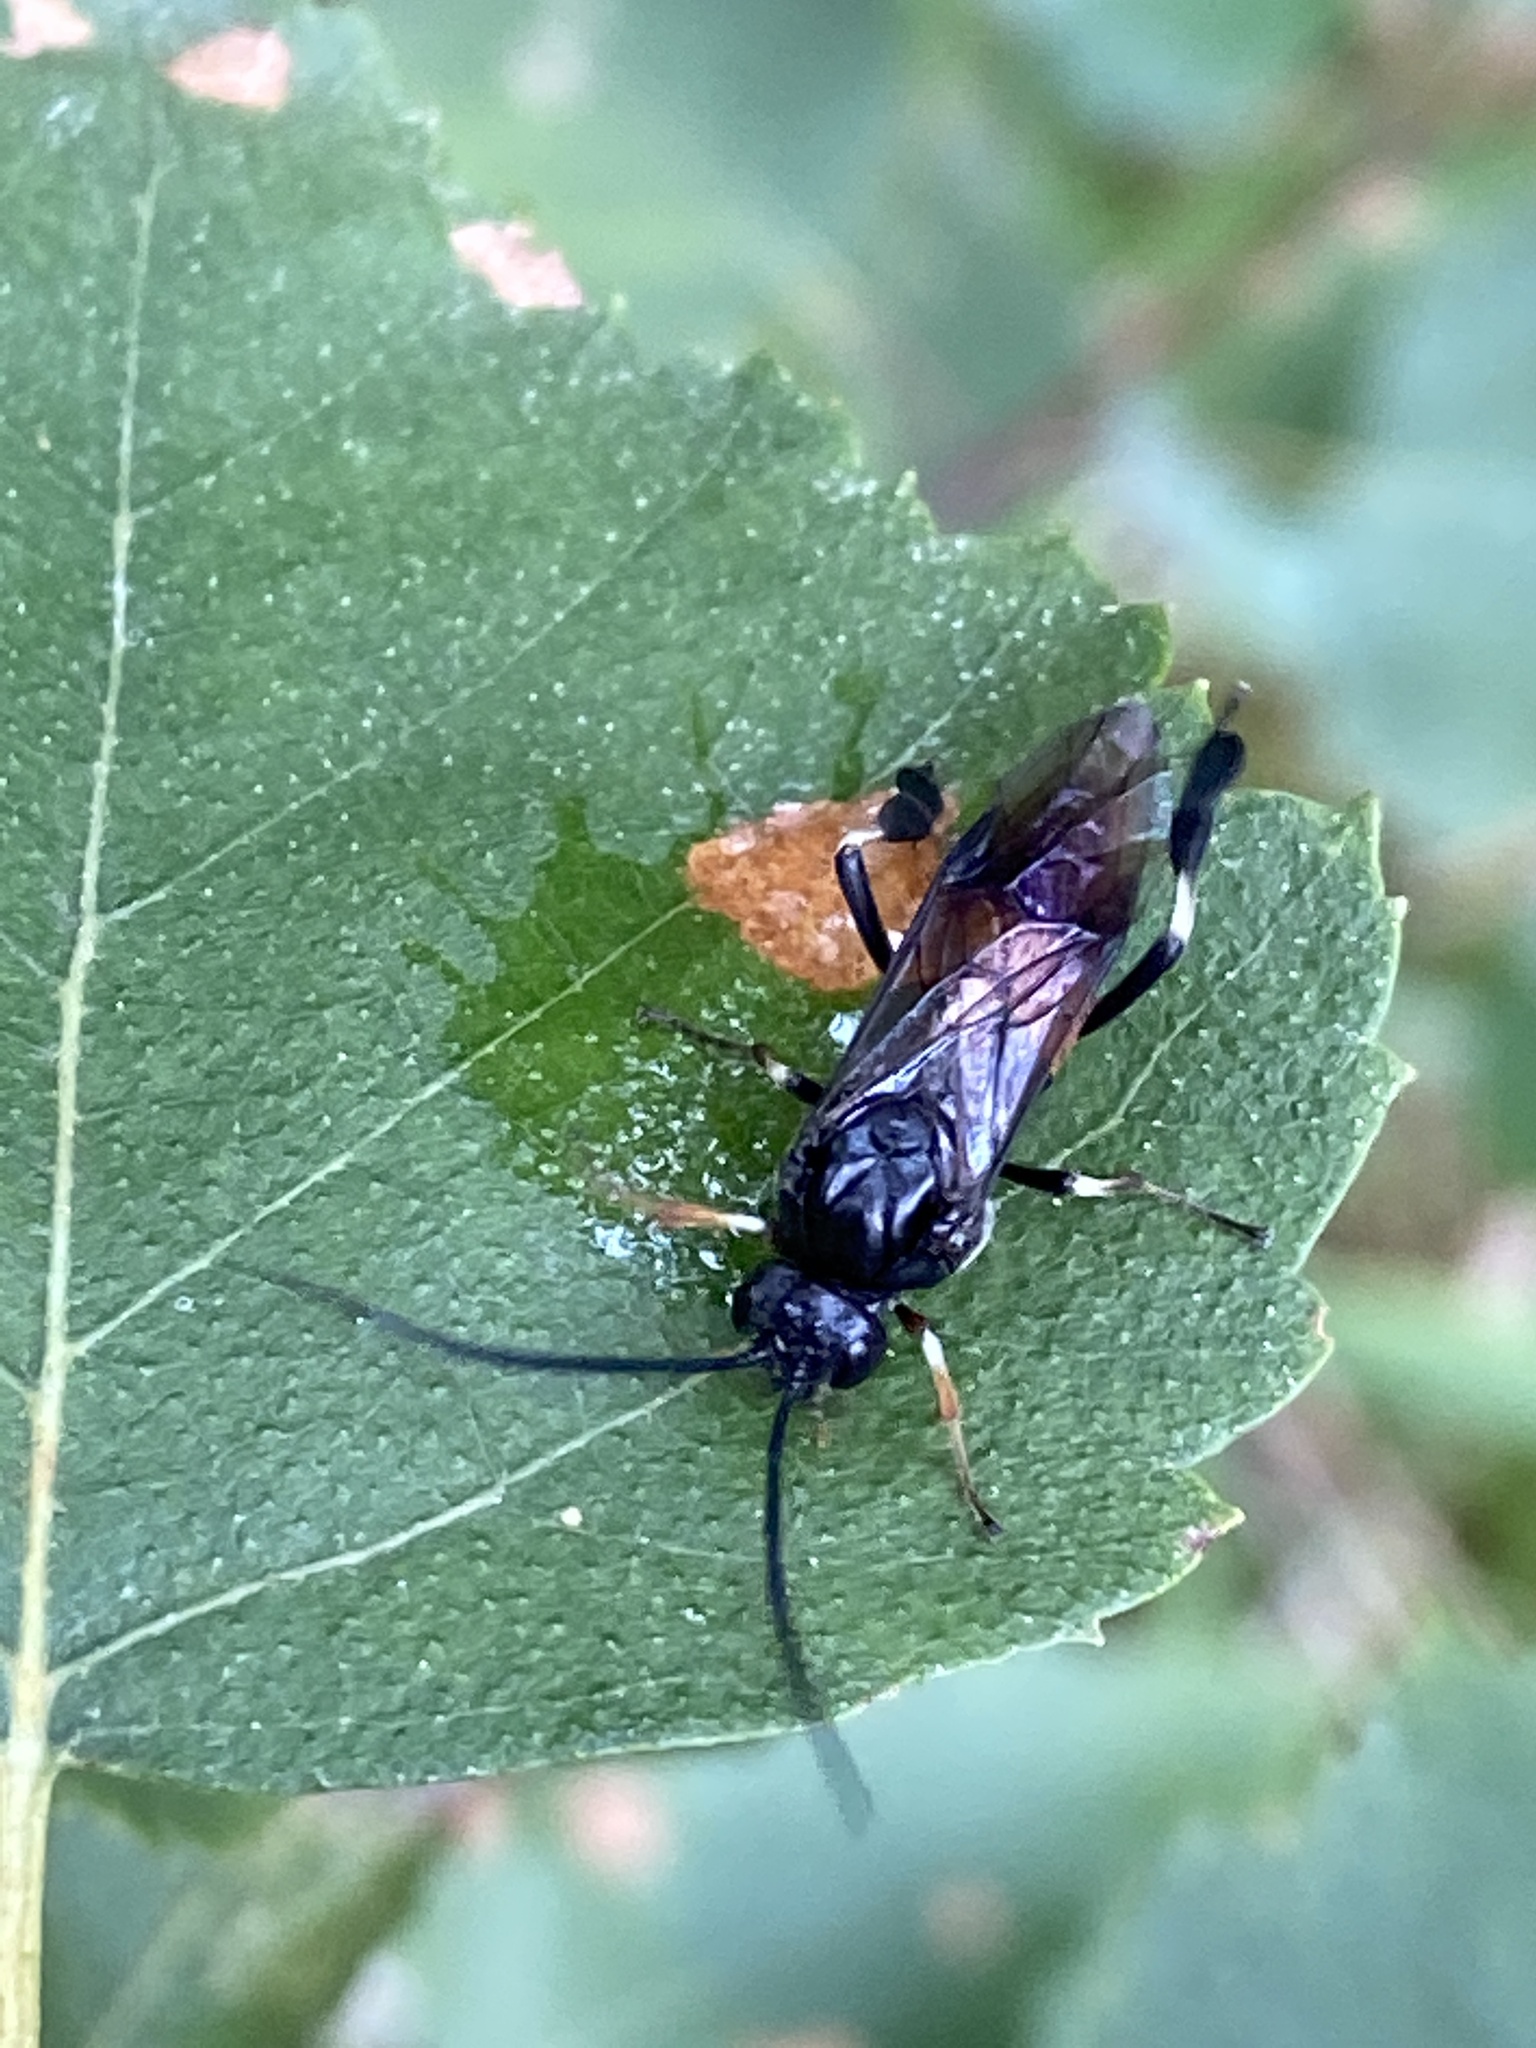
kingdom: Animalia
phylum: Arthropoda
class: Insecta
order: Hymenoptera
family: Tenthredinidae
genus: Craesus
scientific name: Craesus septentrionalis
